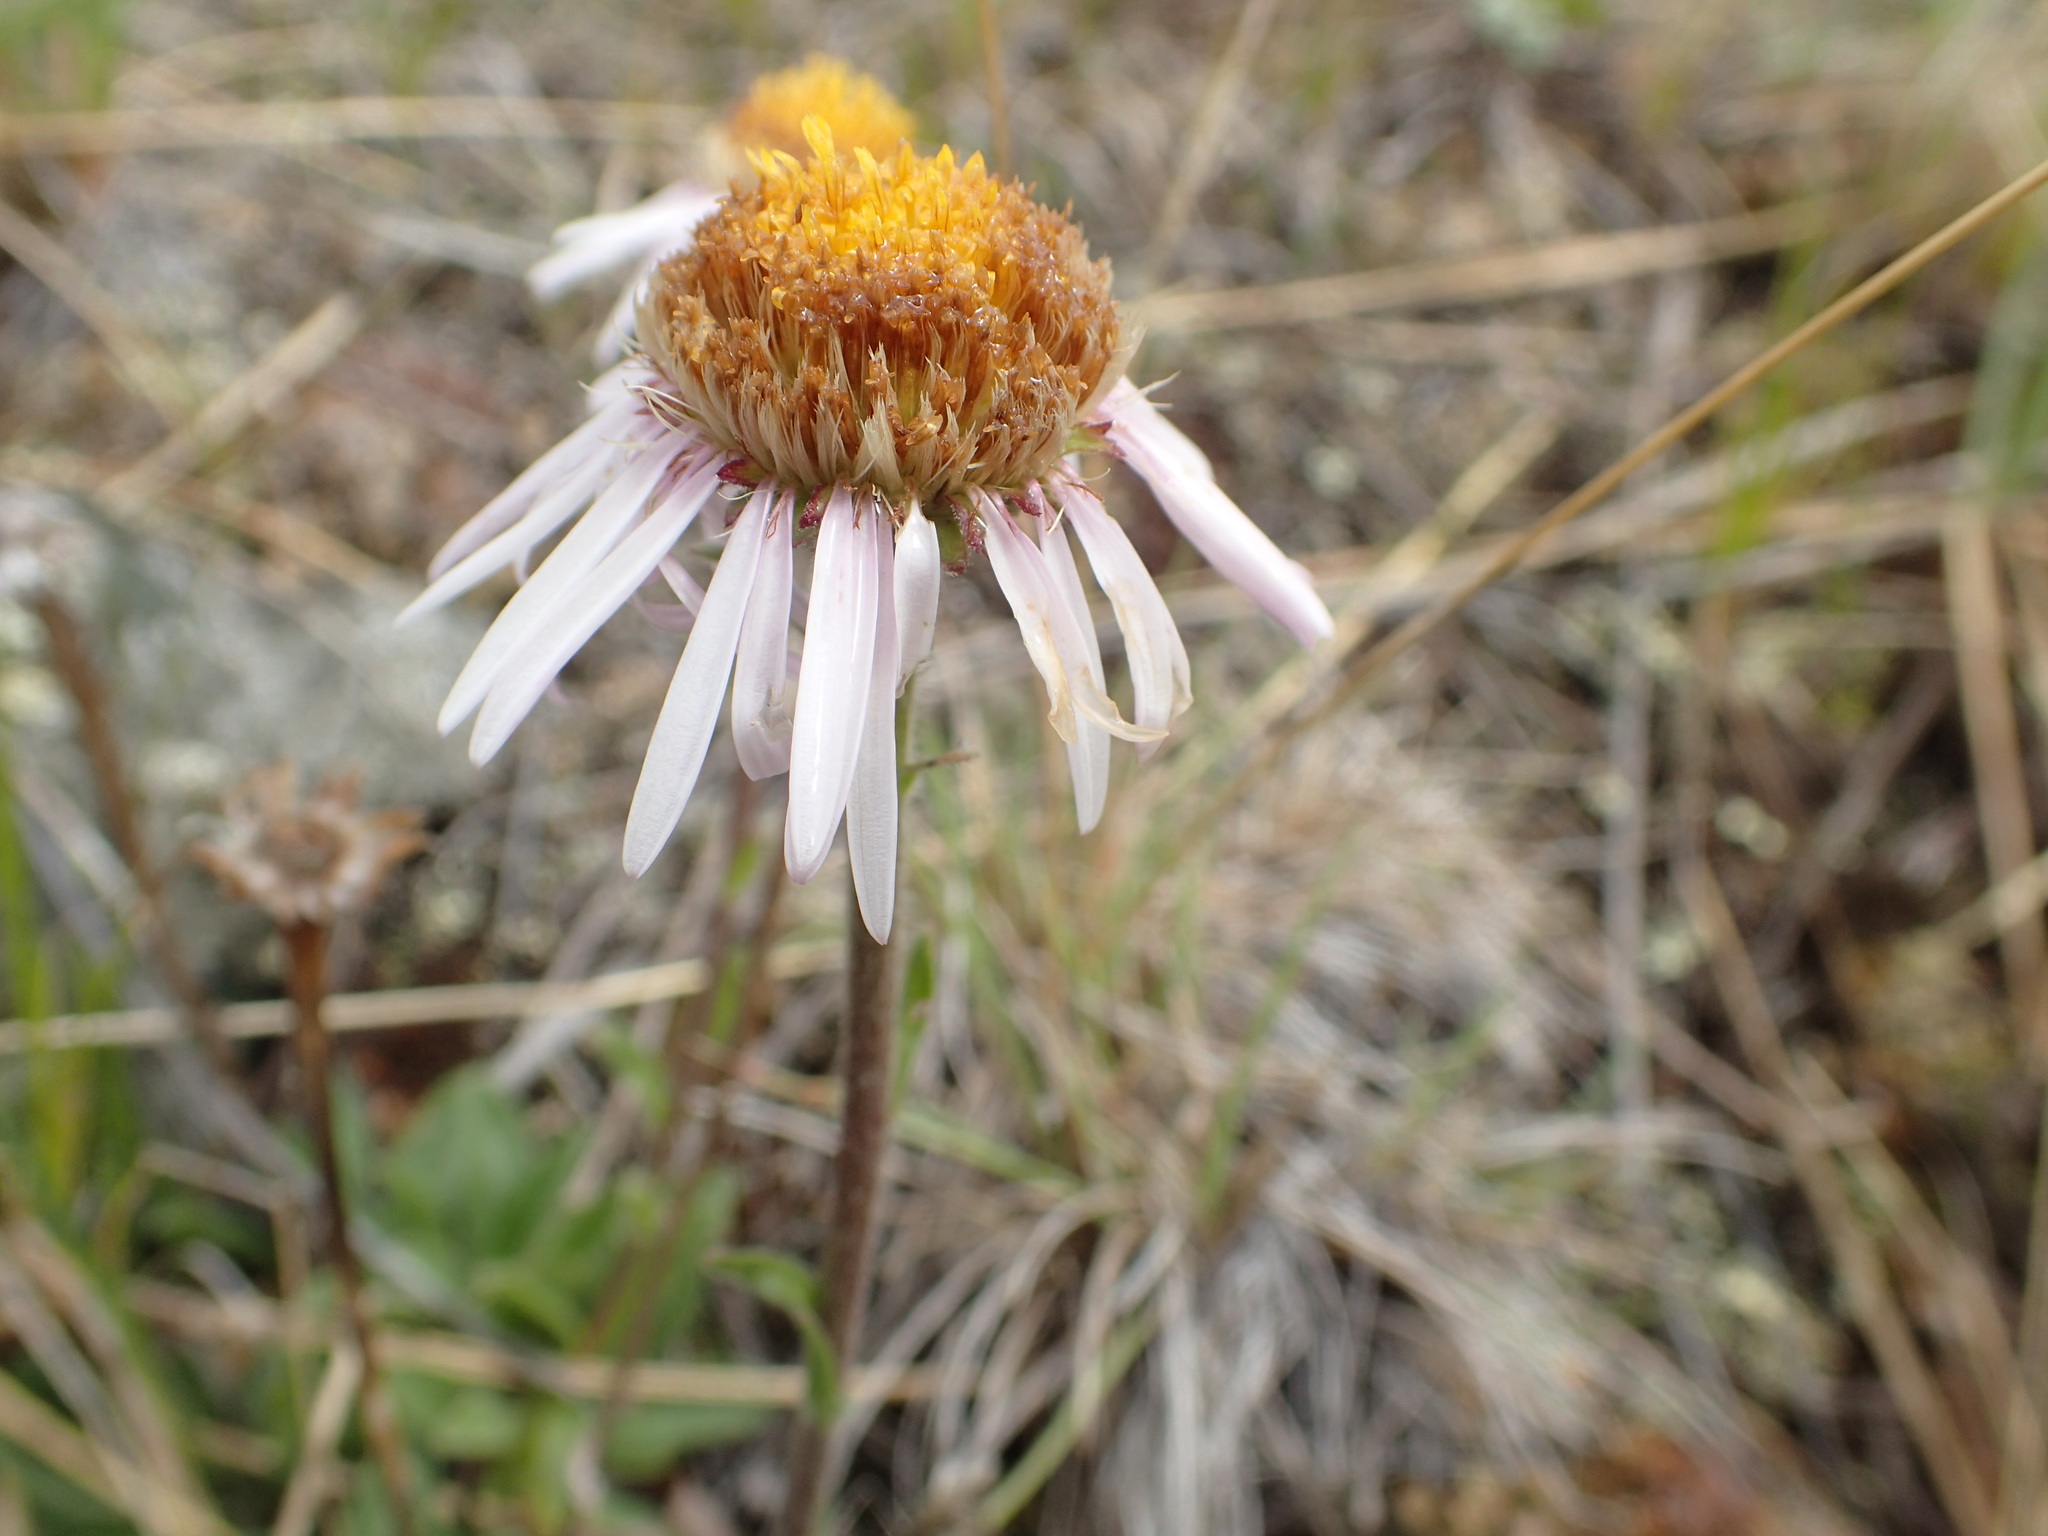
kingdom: Plantae
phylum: Tracheophyta
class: Magnoliopsida
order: Asterales
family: Asteraceae
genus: Aster
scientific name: Aster alpinus
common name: Alpine aster
